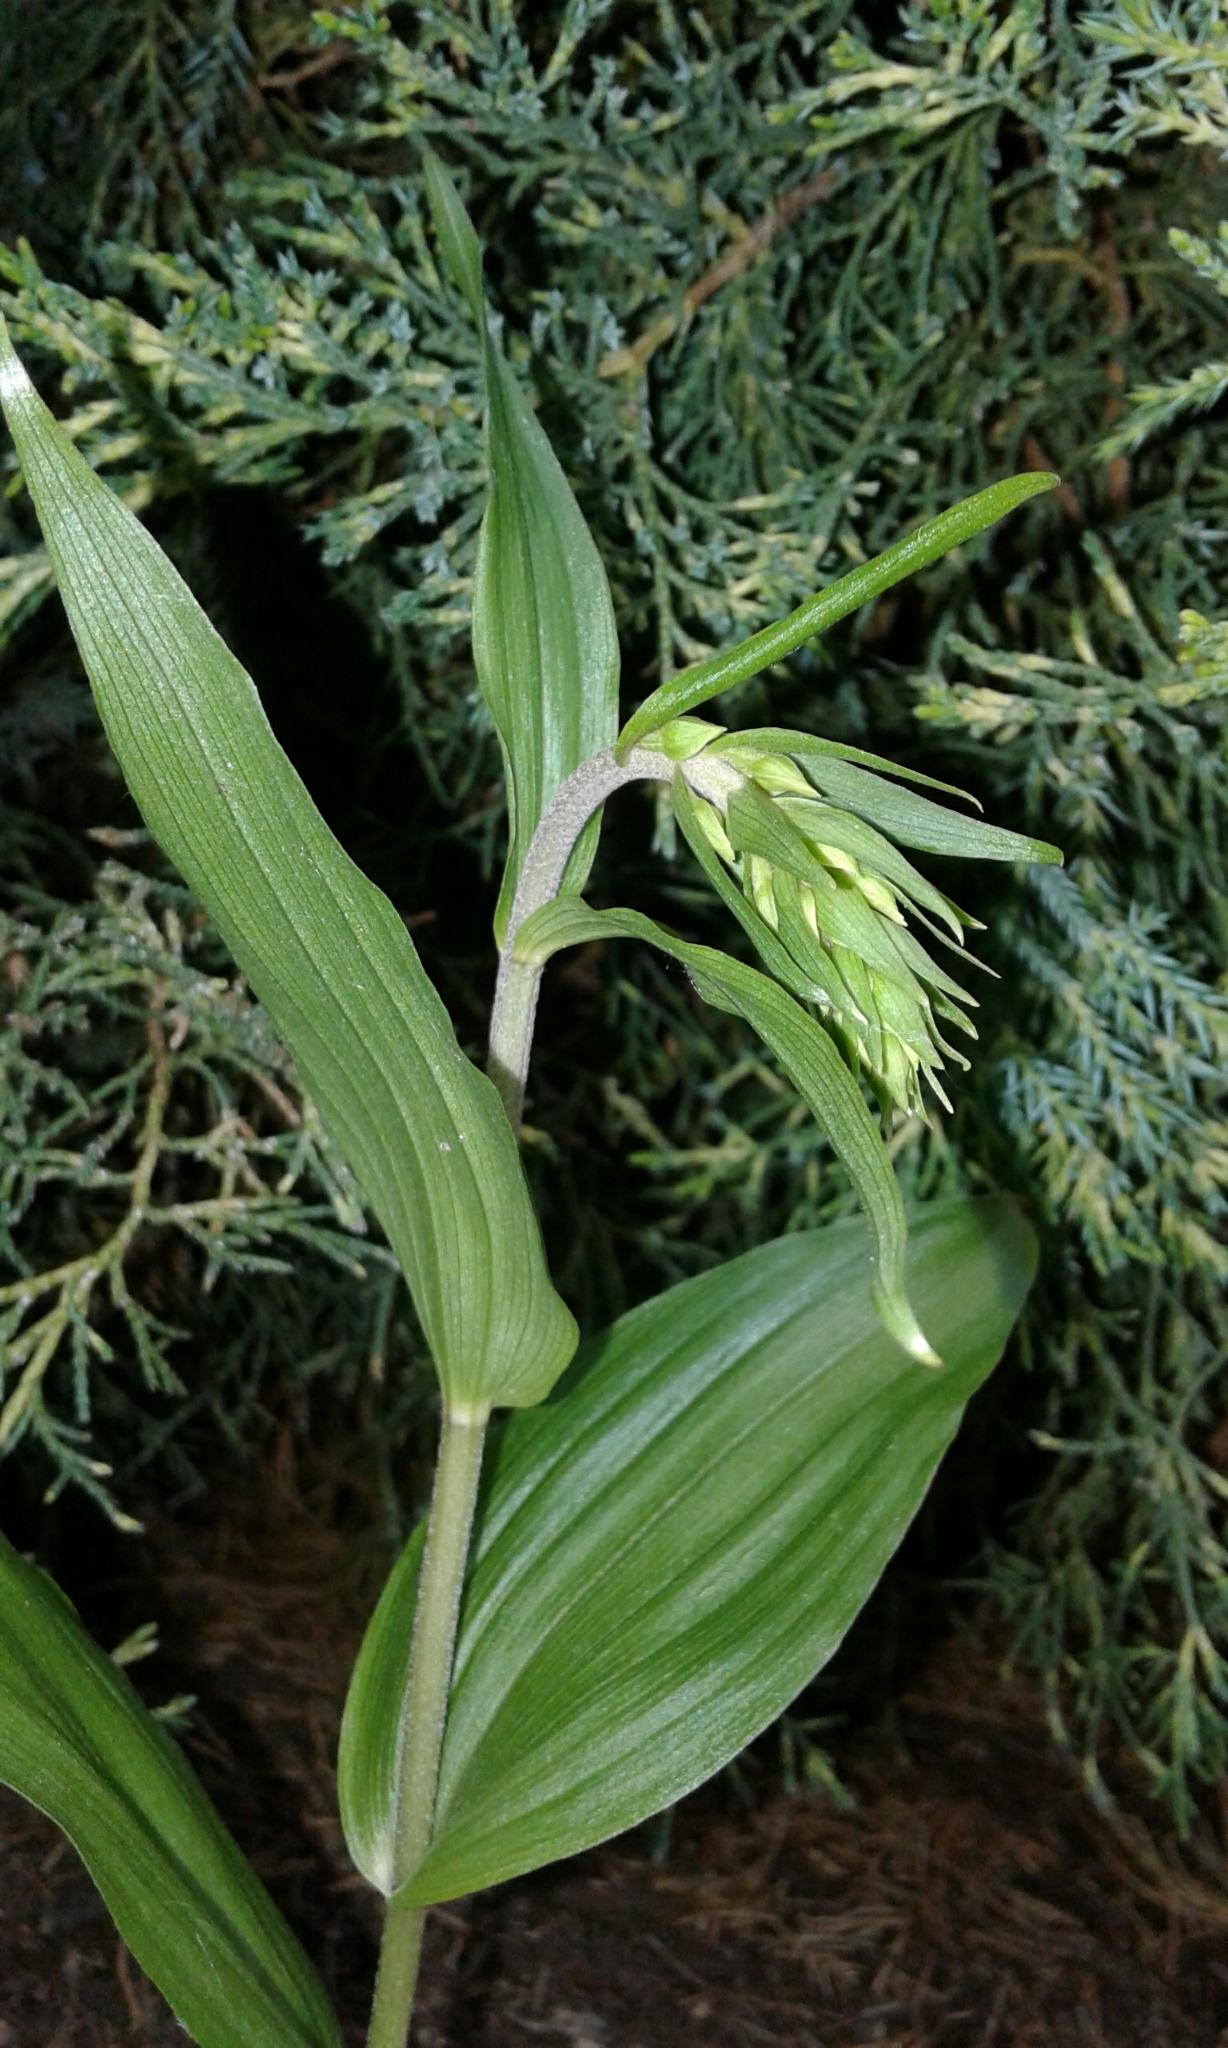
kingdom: Plantae
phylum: Tracheophyta
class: Liliopsida
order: Asparagales
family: Orchidaceae
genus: Epipactis
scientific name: Epipactis helleborine
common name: Broad-leaved helleborine
